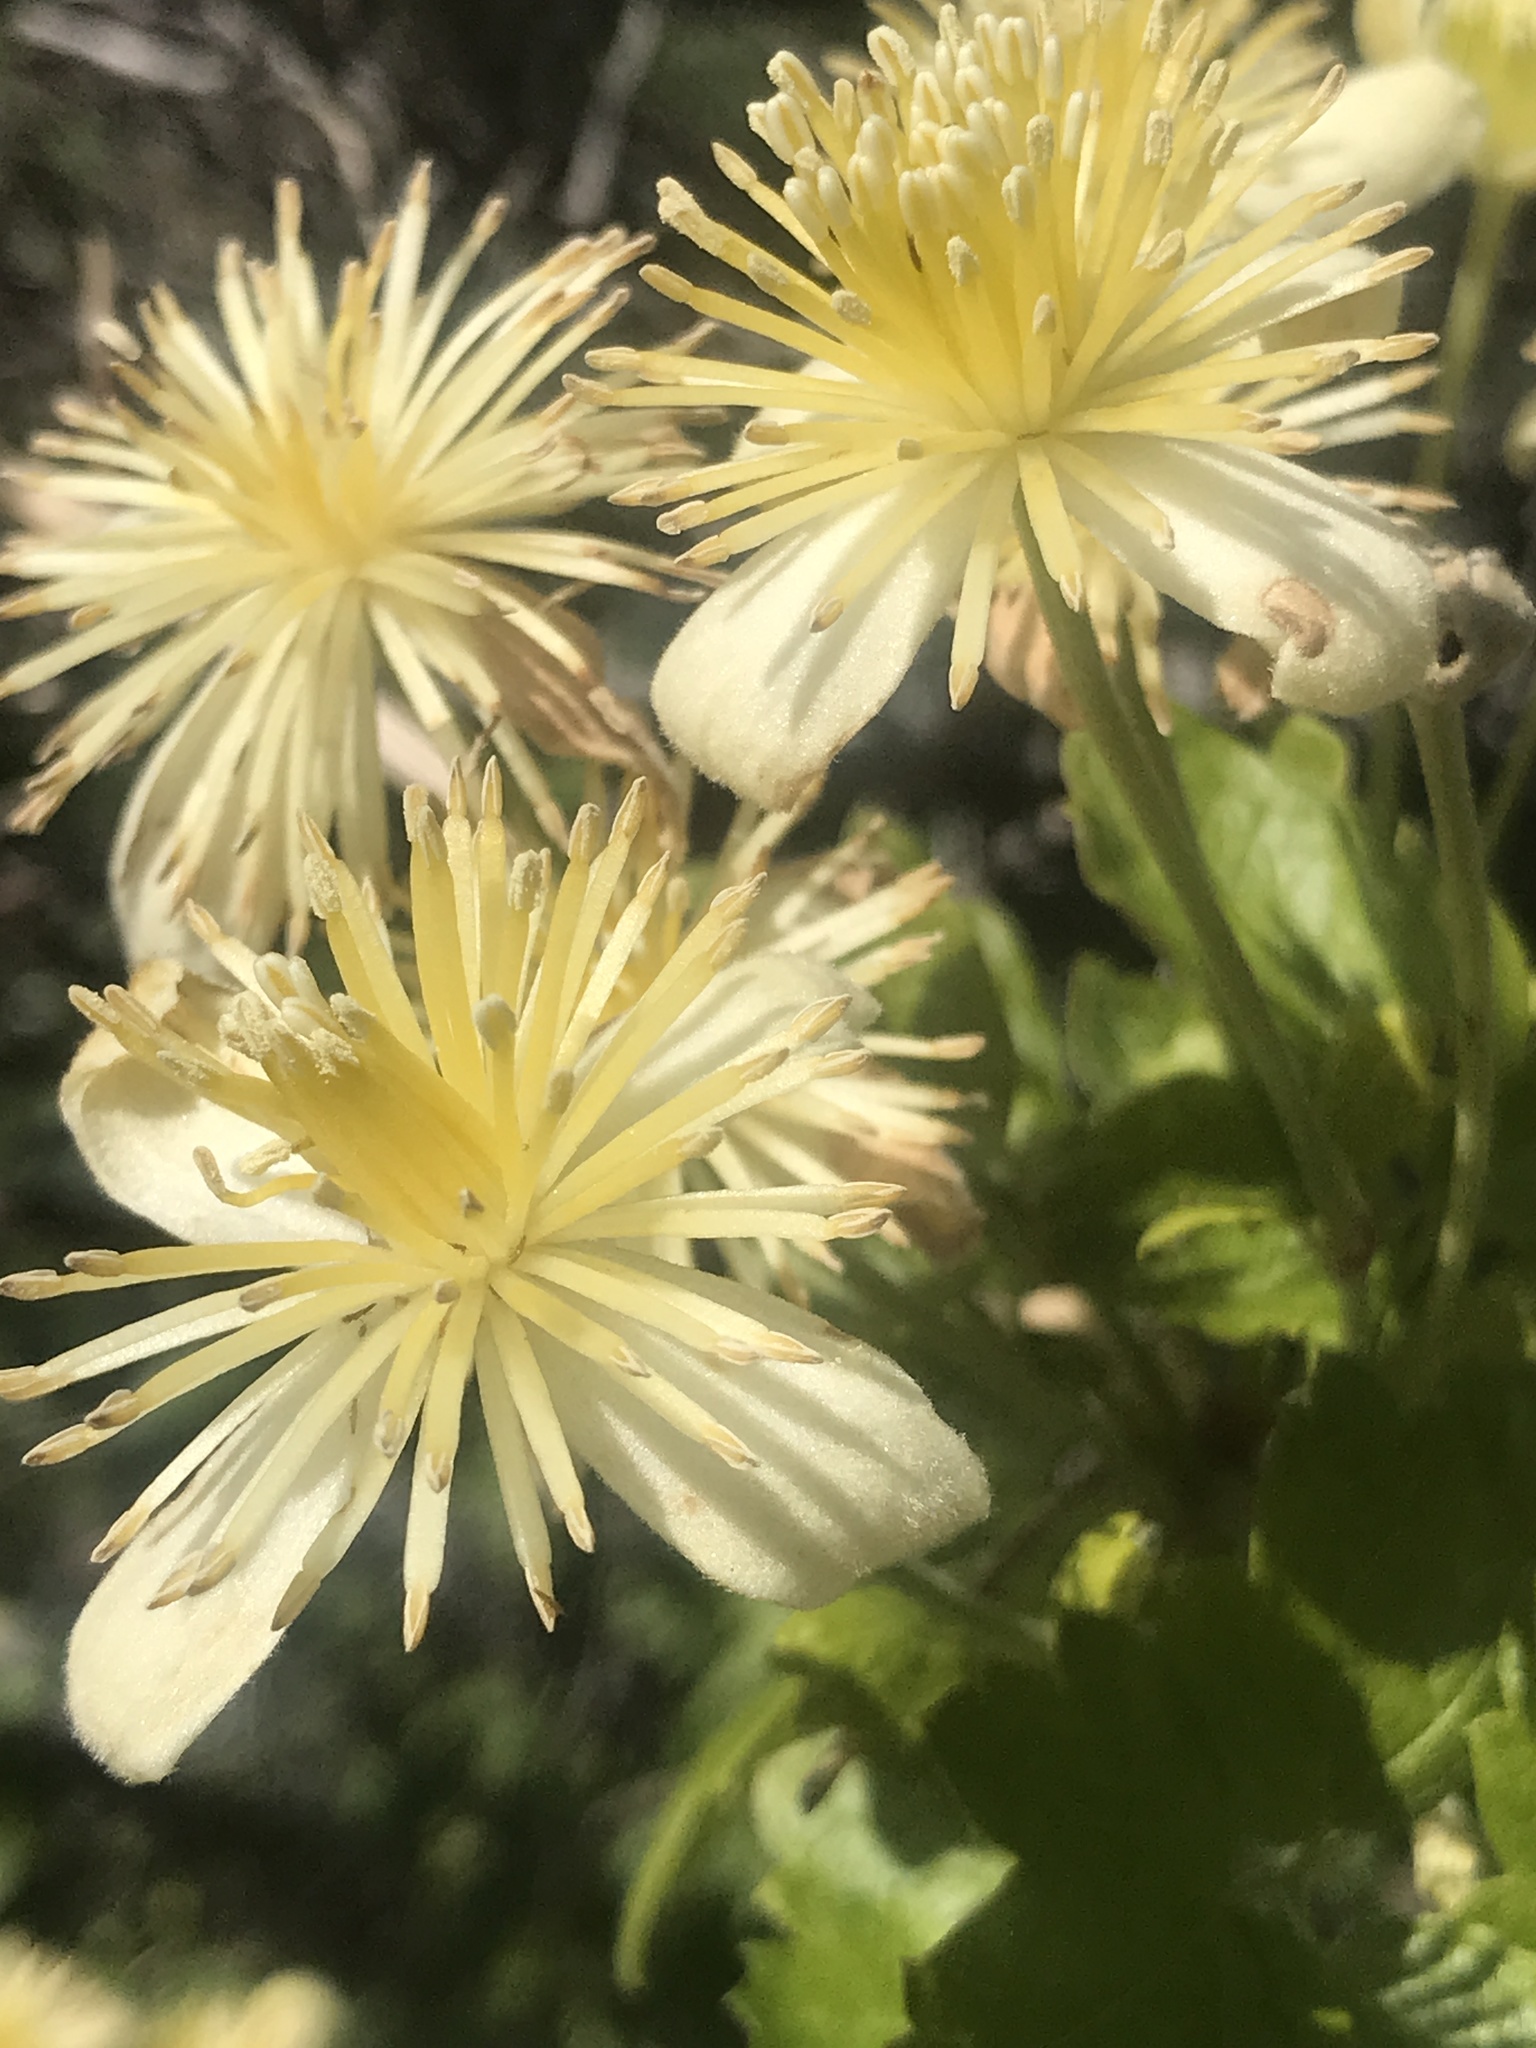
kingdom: Plantae
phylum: Tracheophyta
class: Magnoliopsida
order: Ranunculales
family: Ranunculaceae
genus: Clematis
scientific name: Clematis lasiantha
